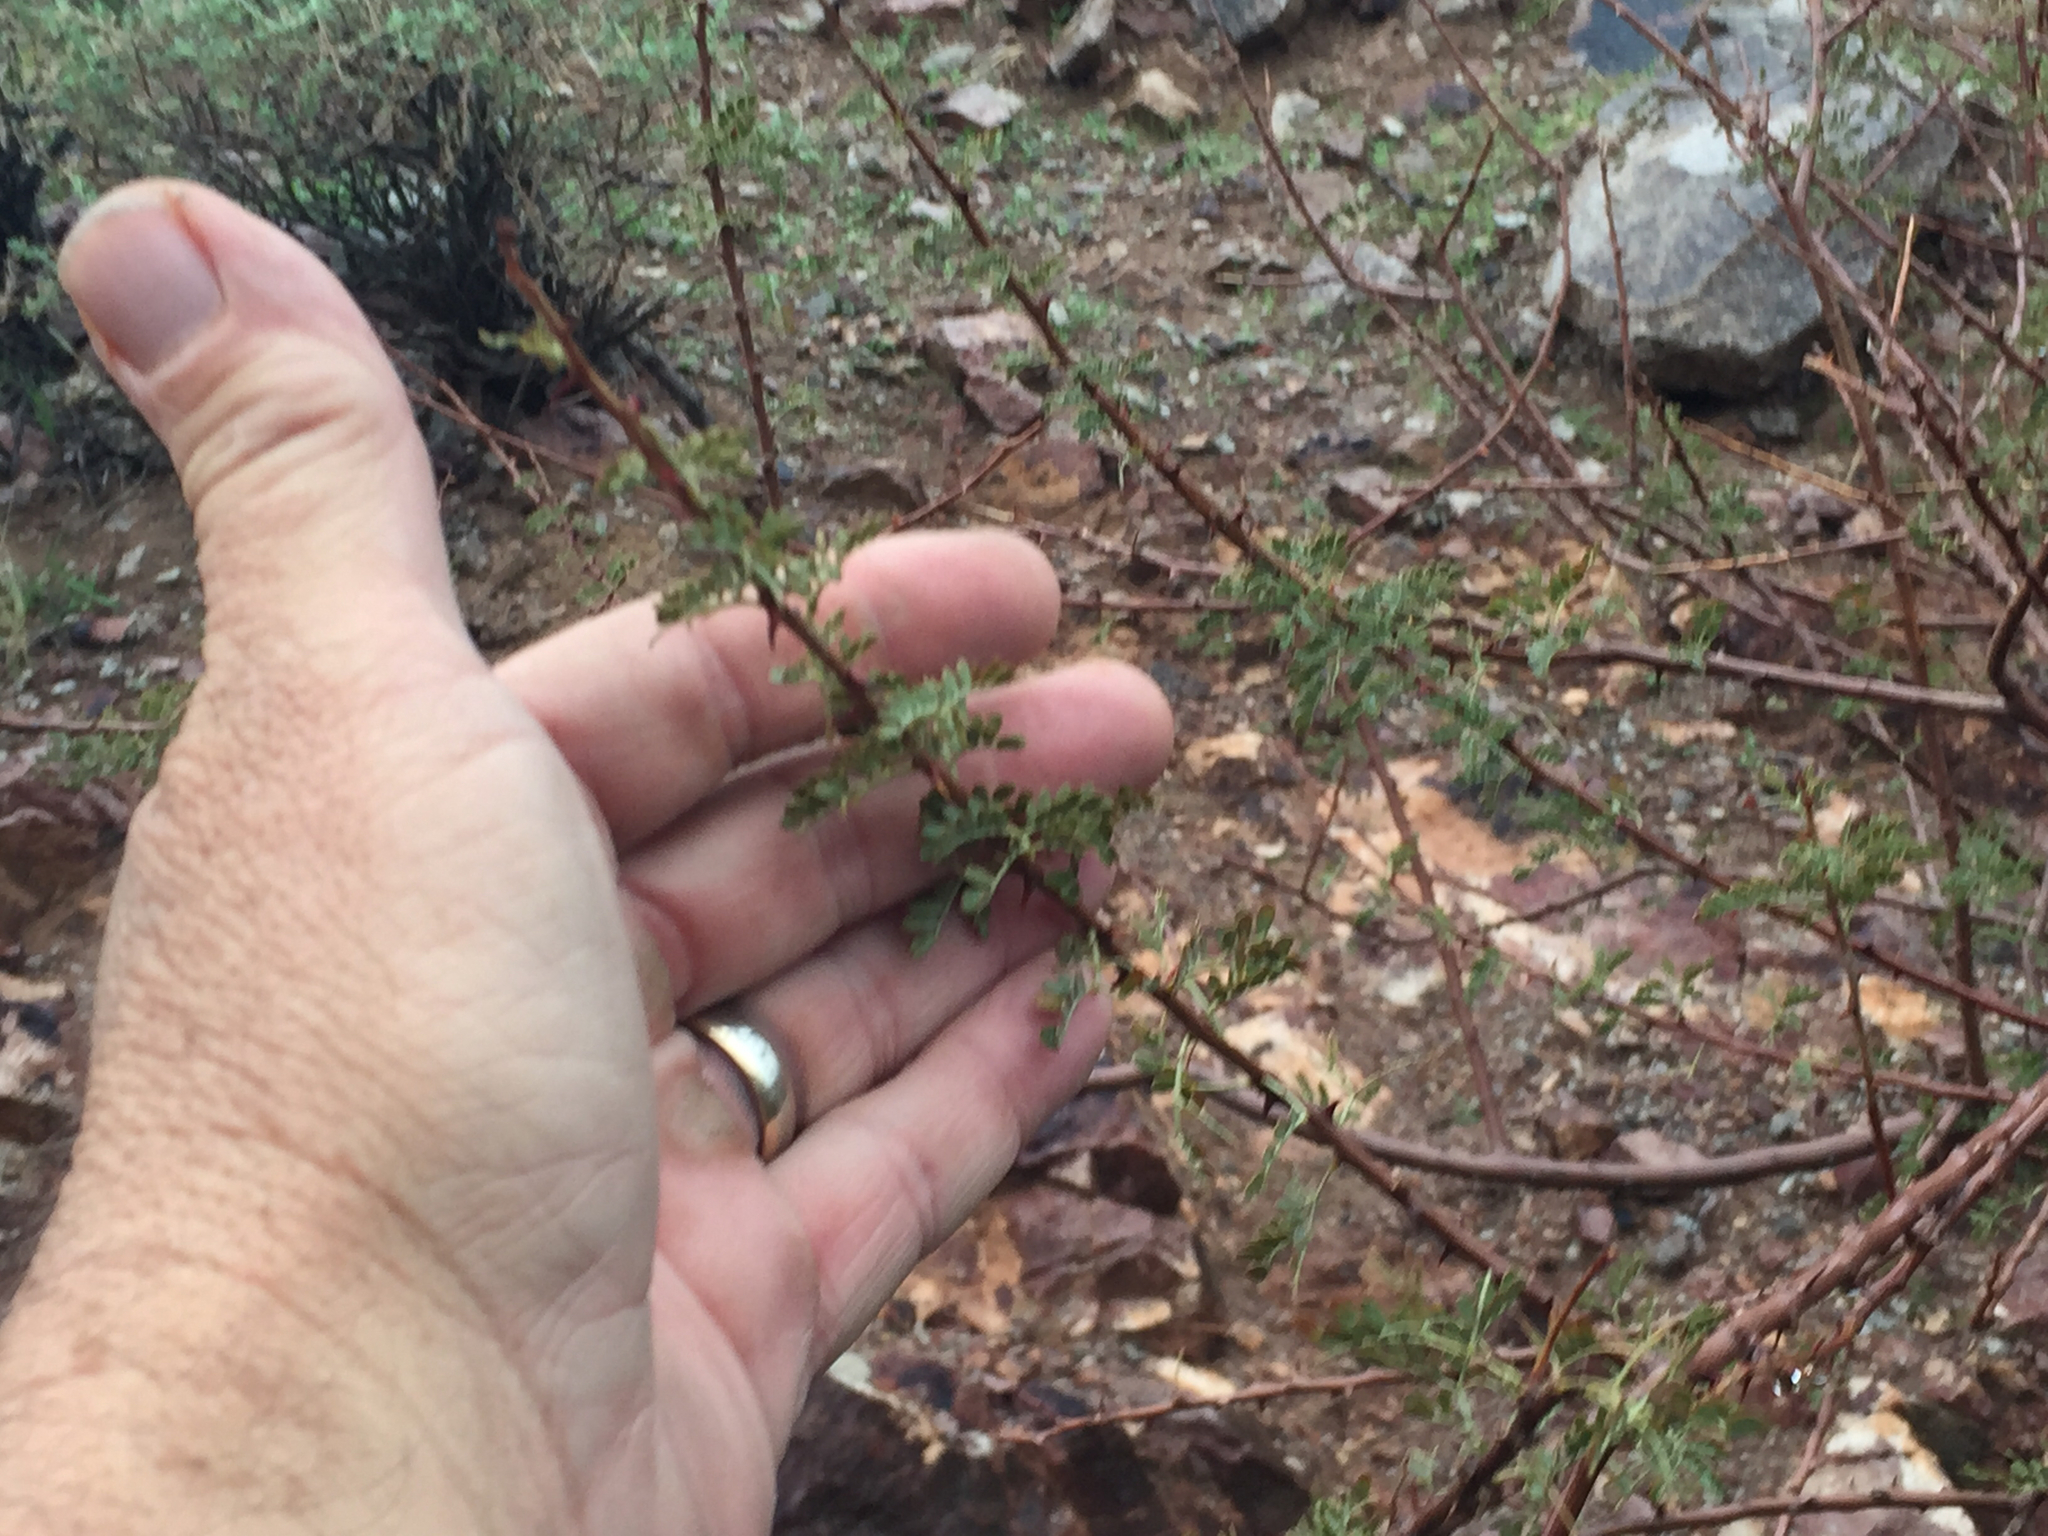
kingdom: Plantae
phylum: Tracheophyta
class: Magnoliopsida
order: Fabales
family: Fabaceae
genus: Senegalia
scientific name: Senegalia greggii
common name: Texas-mimosa
